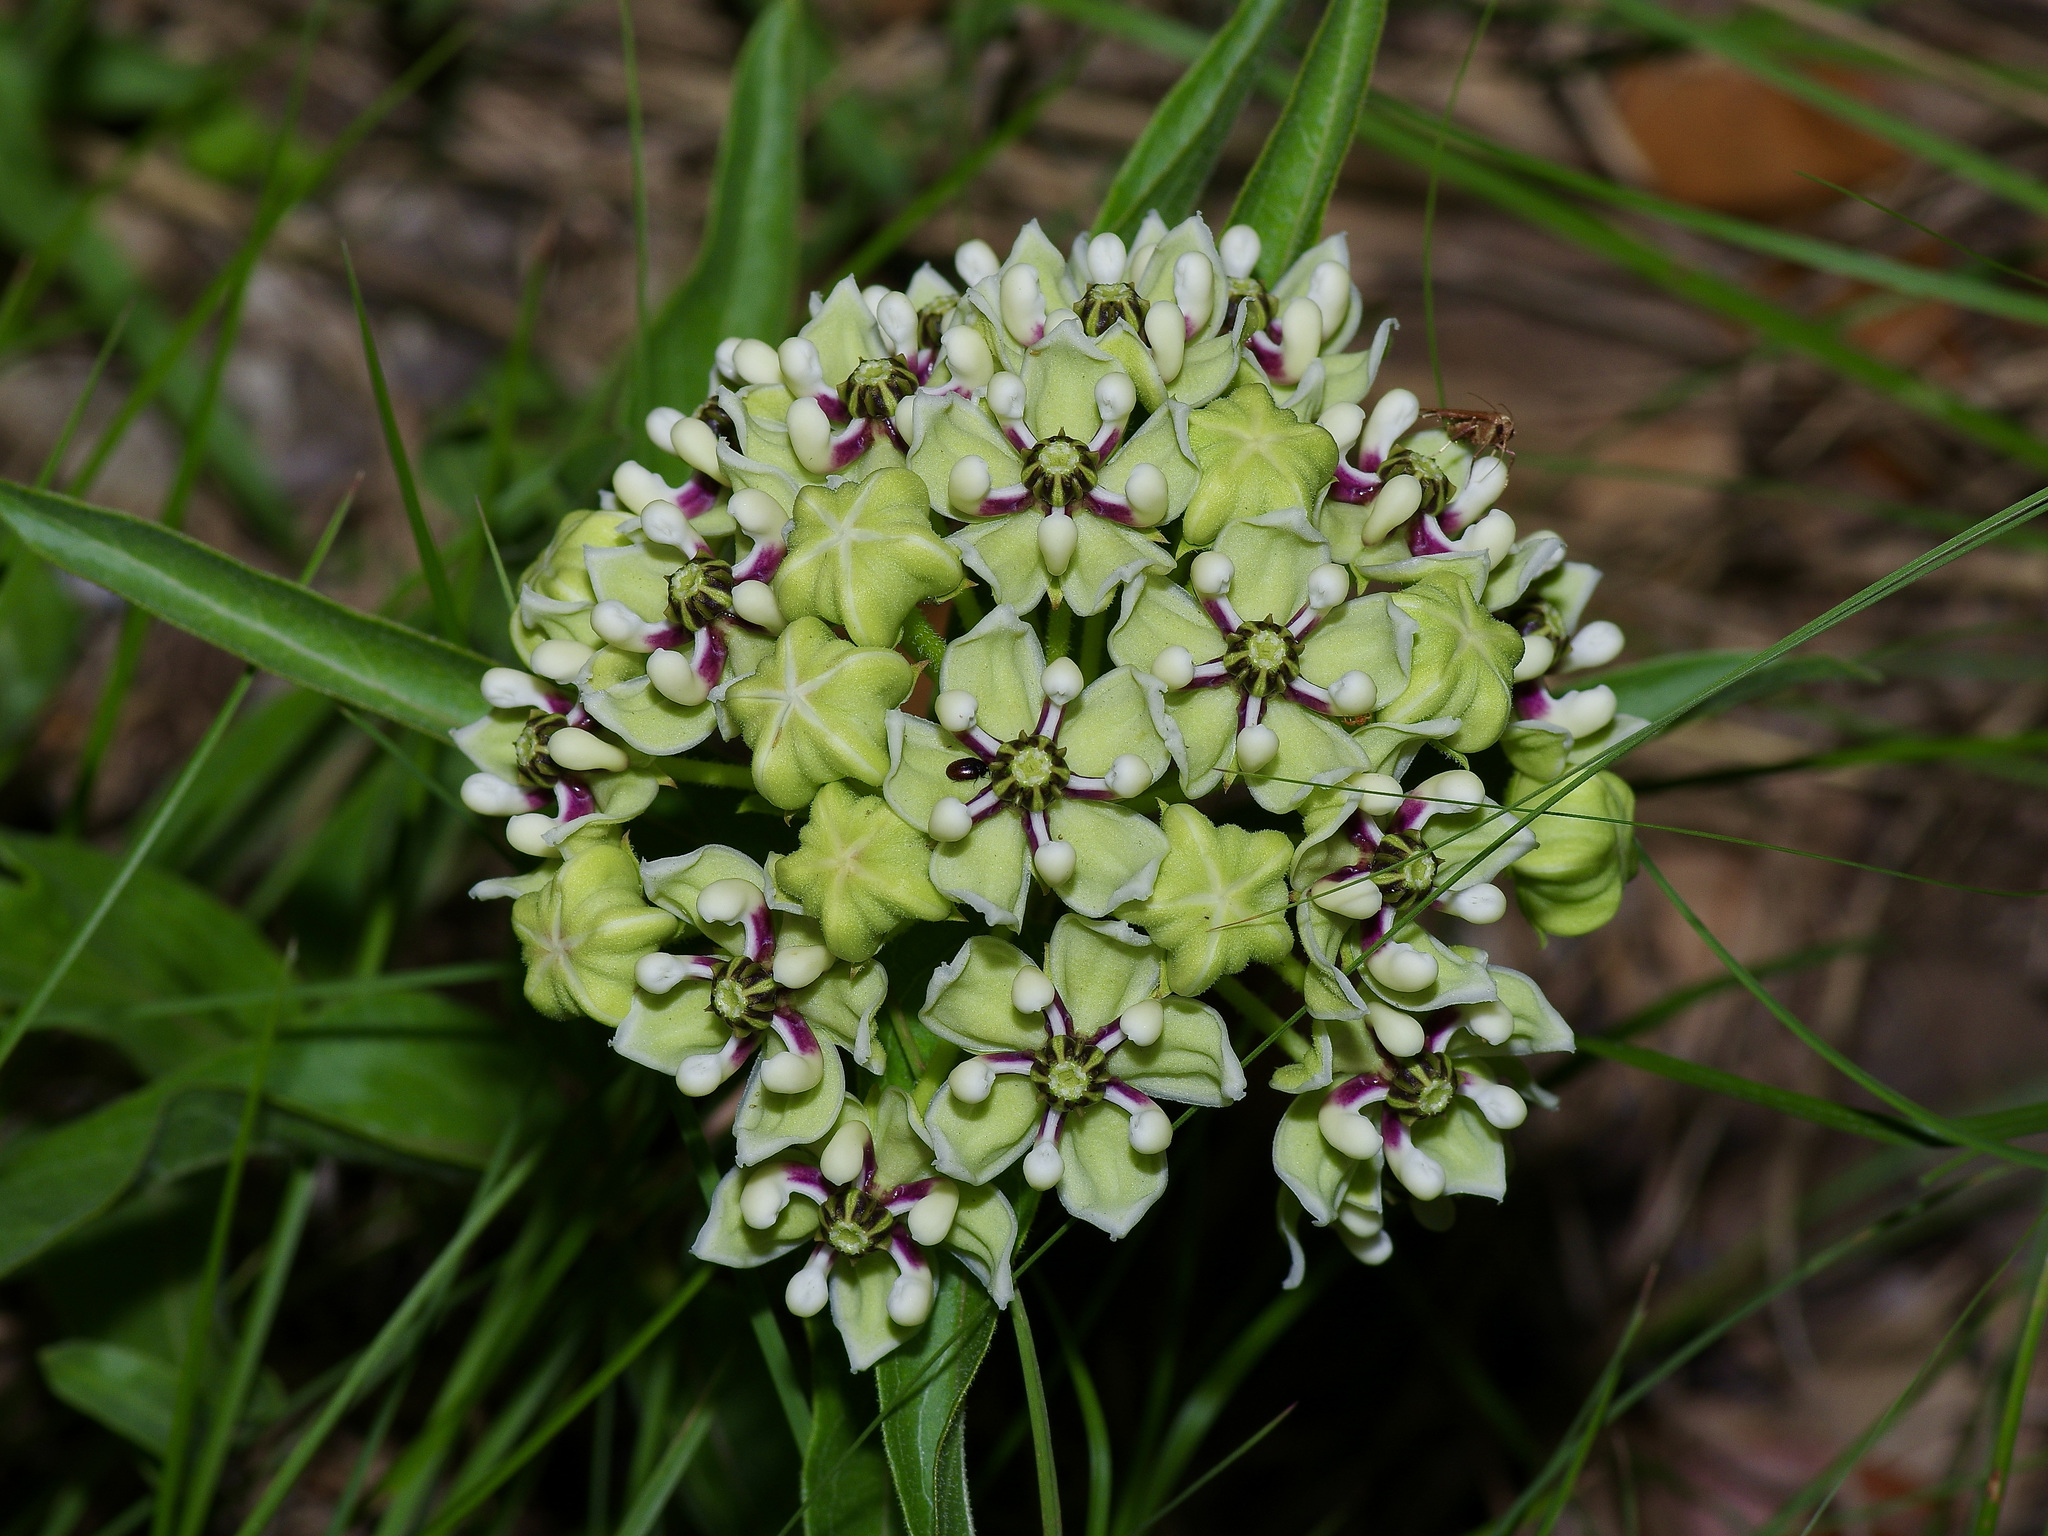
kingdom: Plantae
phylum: Tracheophyta
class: Magnoliopsida
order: Gentianales
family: Apocynaceae
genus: Asclepias
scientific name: Asclepias asperula
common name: Antelope horns
